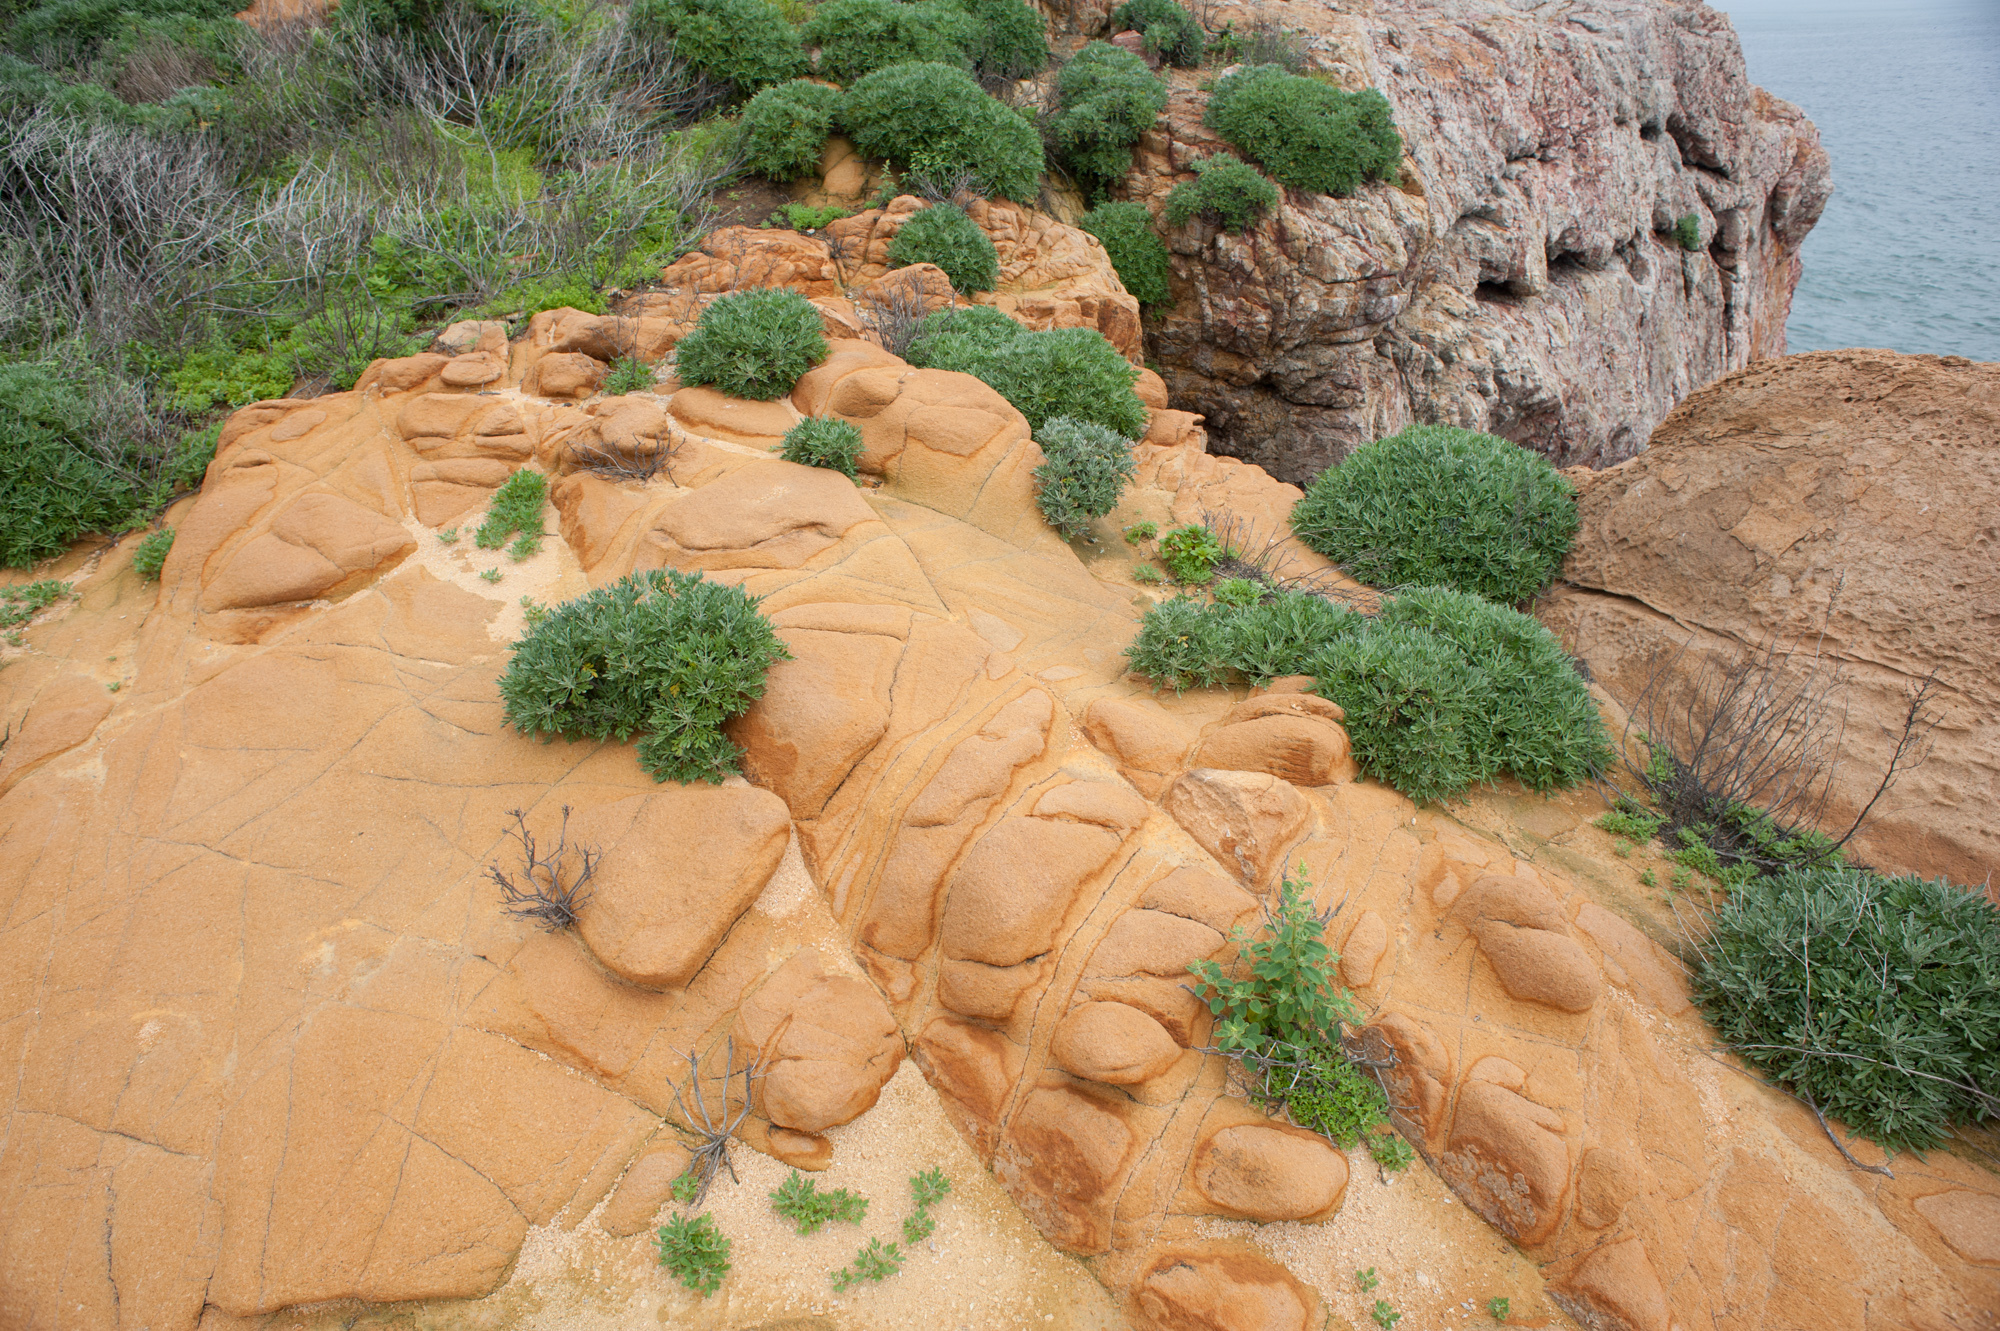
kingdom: Plantae
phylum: Tracheophyta
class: Magnoliopsida
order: Asterales
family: Asteraceae
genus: Crossostephium
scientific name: Crossostephium chinense
